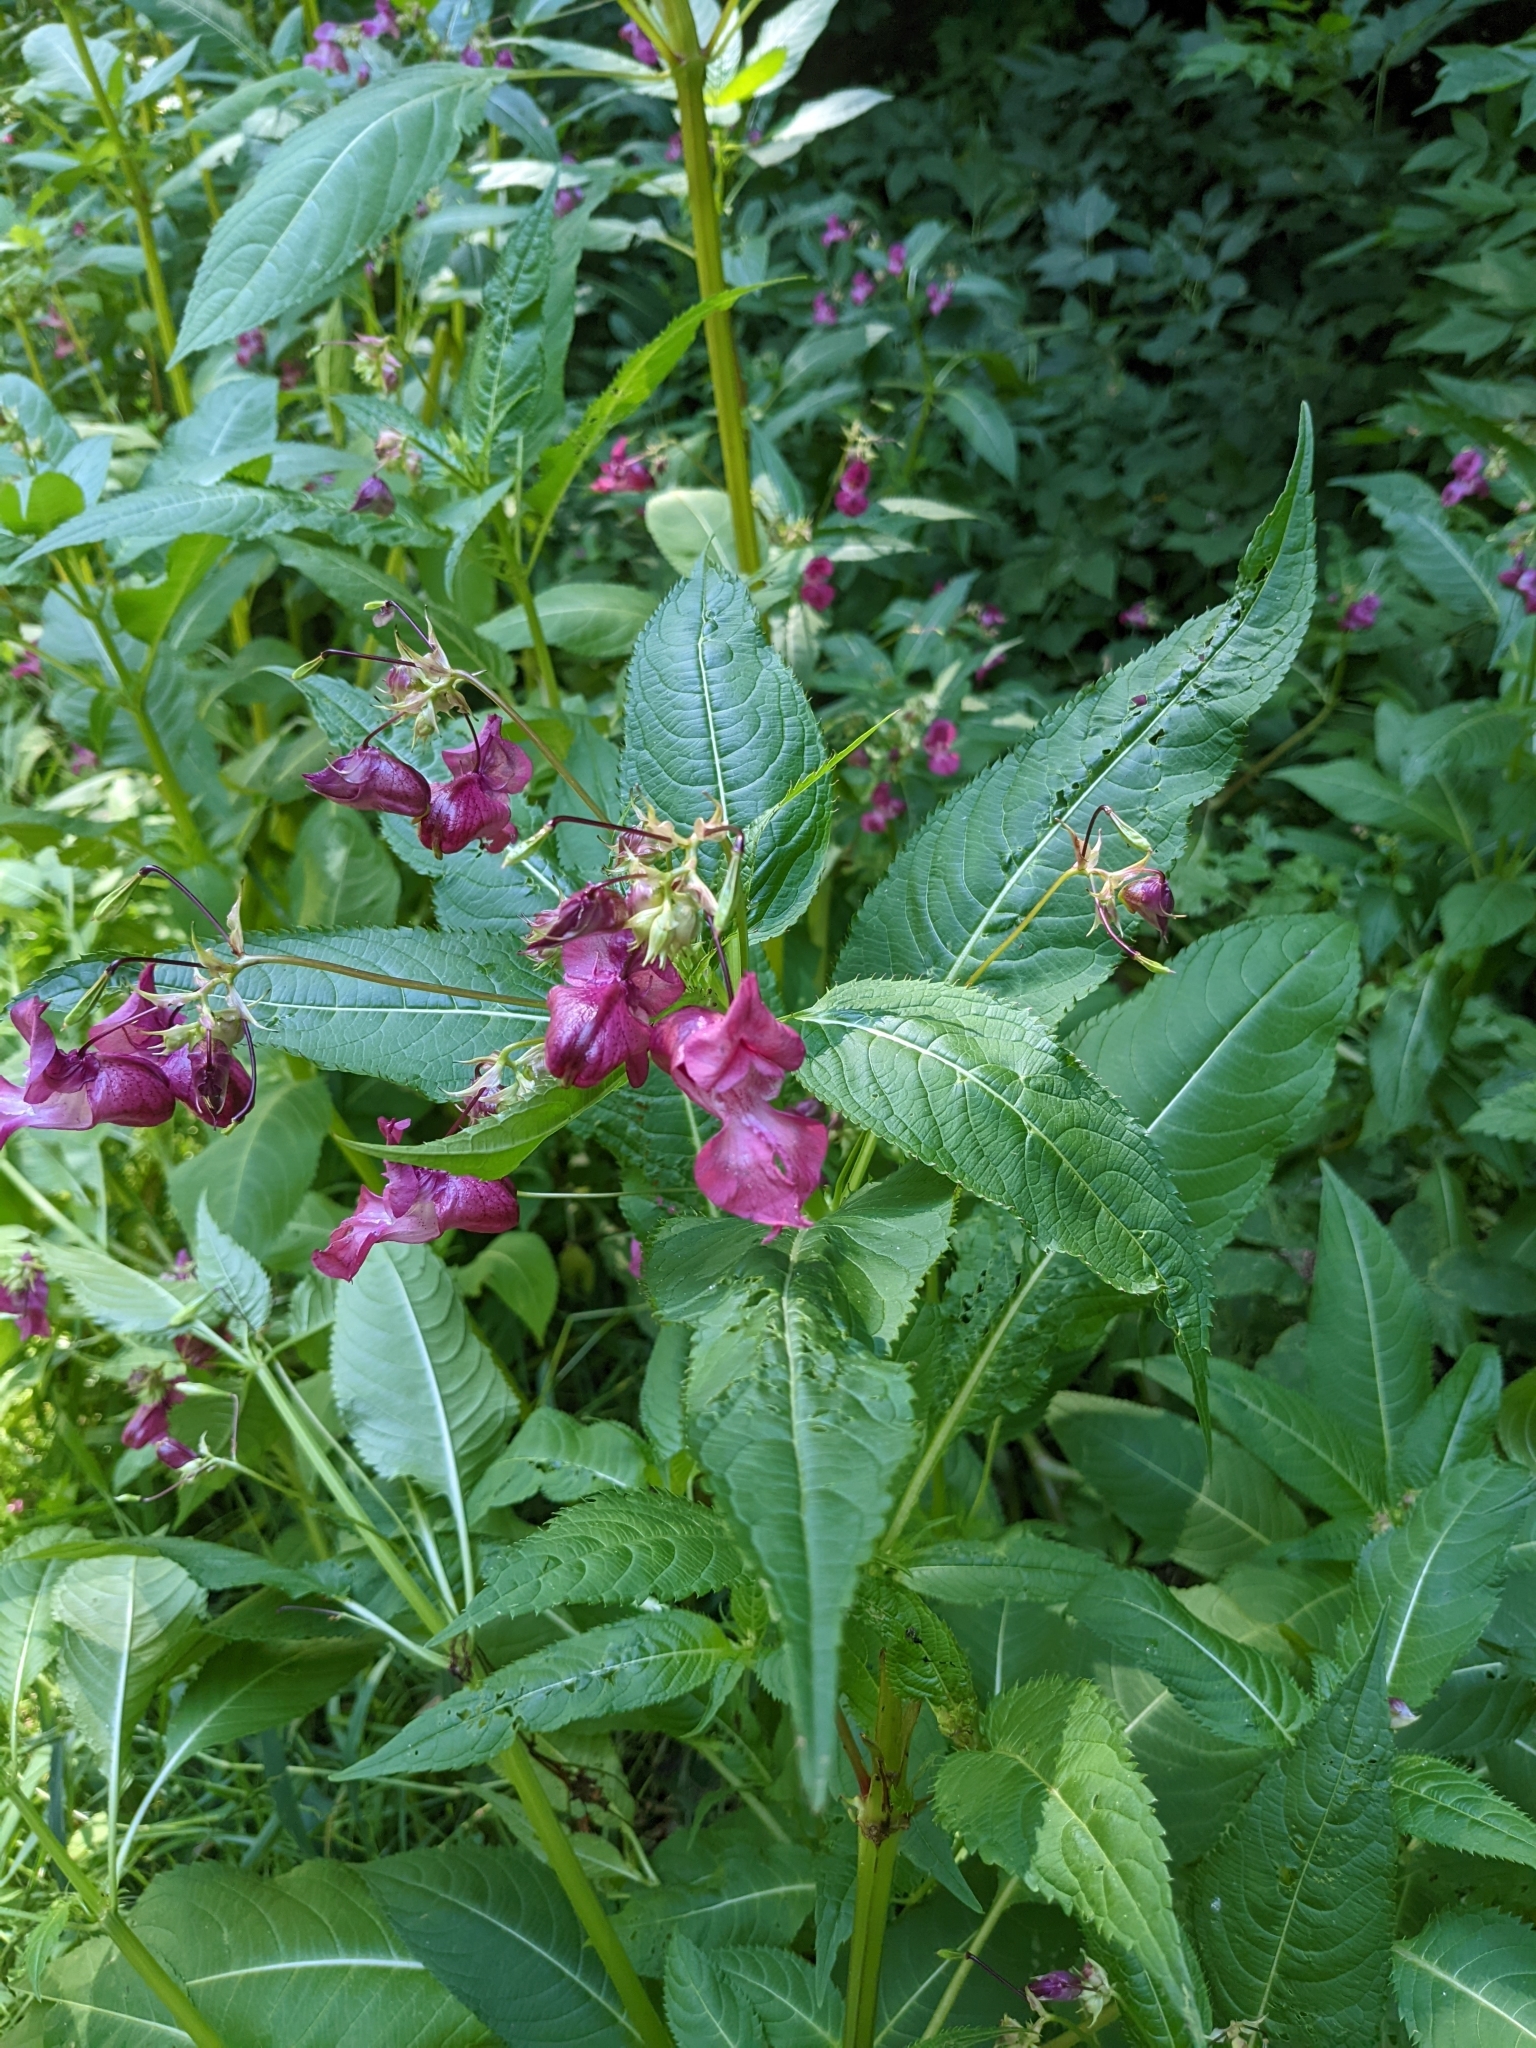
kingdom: Plantae
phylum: Tracheophyta
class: Magnoliopsida
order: Ericales
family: Balsaminaceae
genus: Impatiens
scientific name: Impatiens glandulifera
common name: Himalayan balsam
